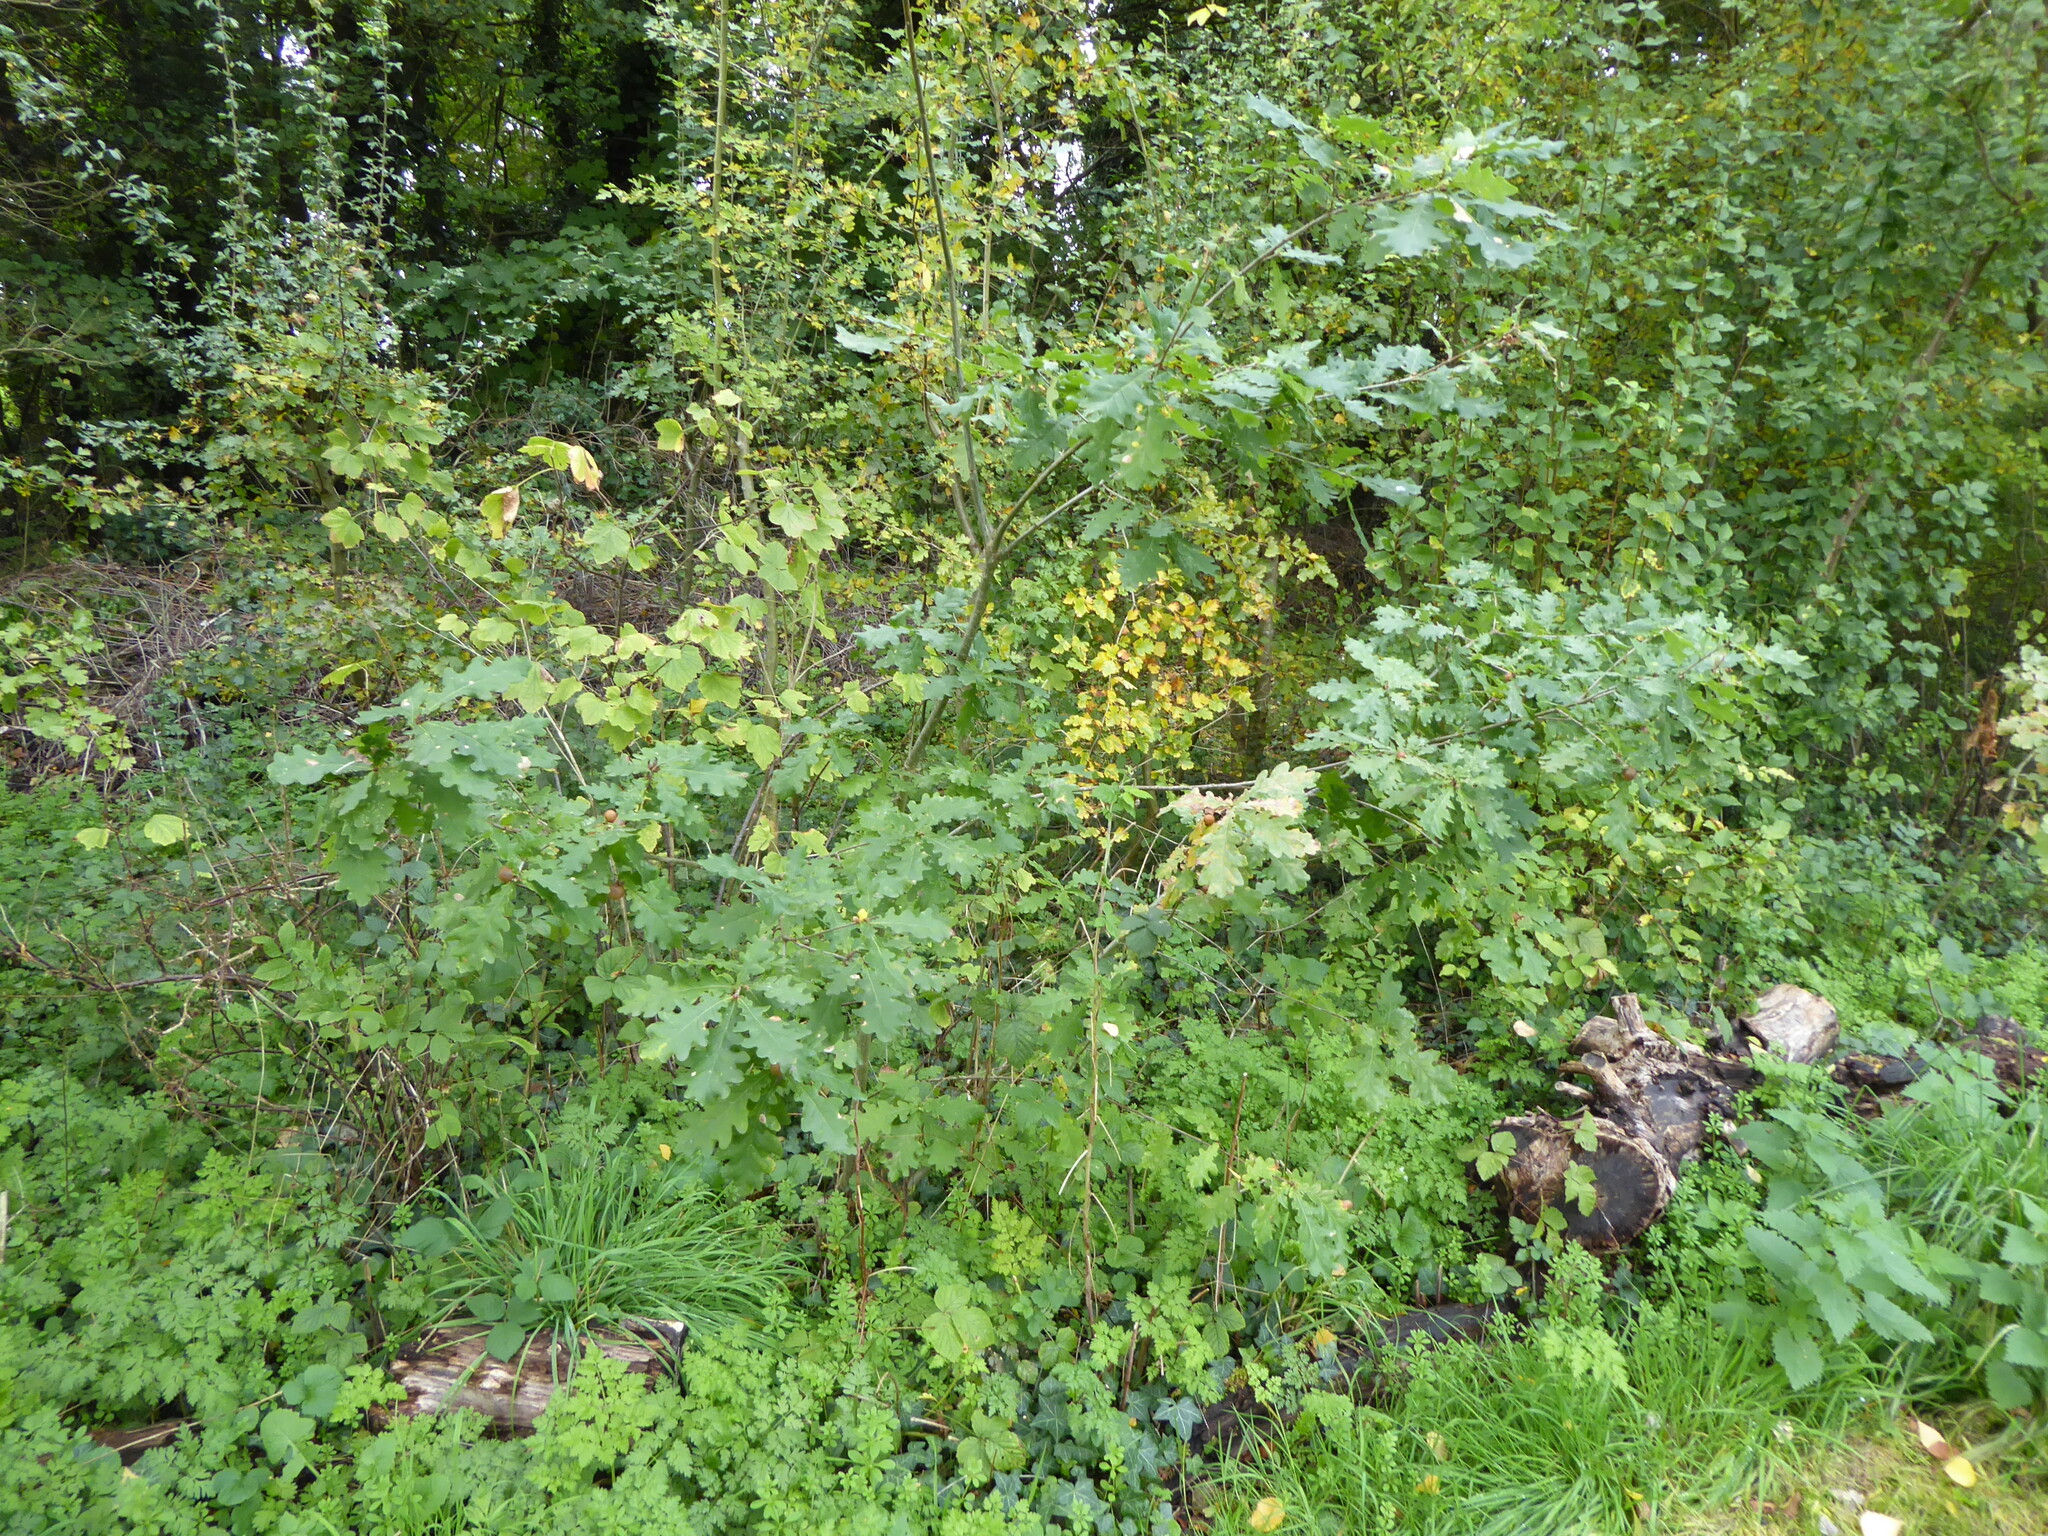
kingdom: Plantae
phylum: Tracheophyta
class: Magnoliopsida
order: Fagales
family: Fagaceae
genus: Quercus
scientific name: Quercus robur
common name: Pedunculate oak
